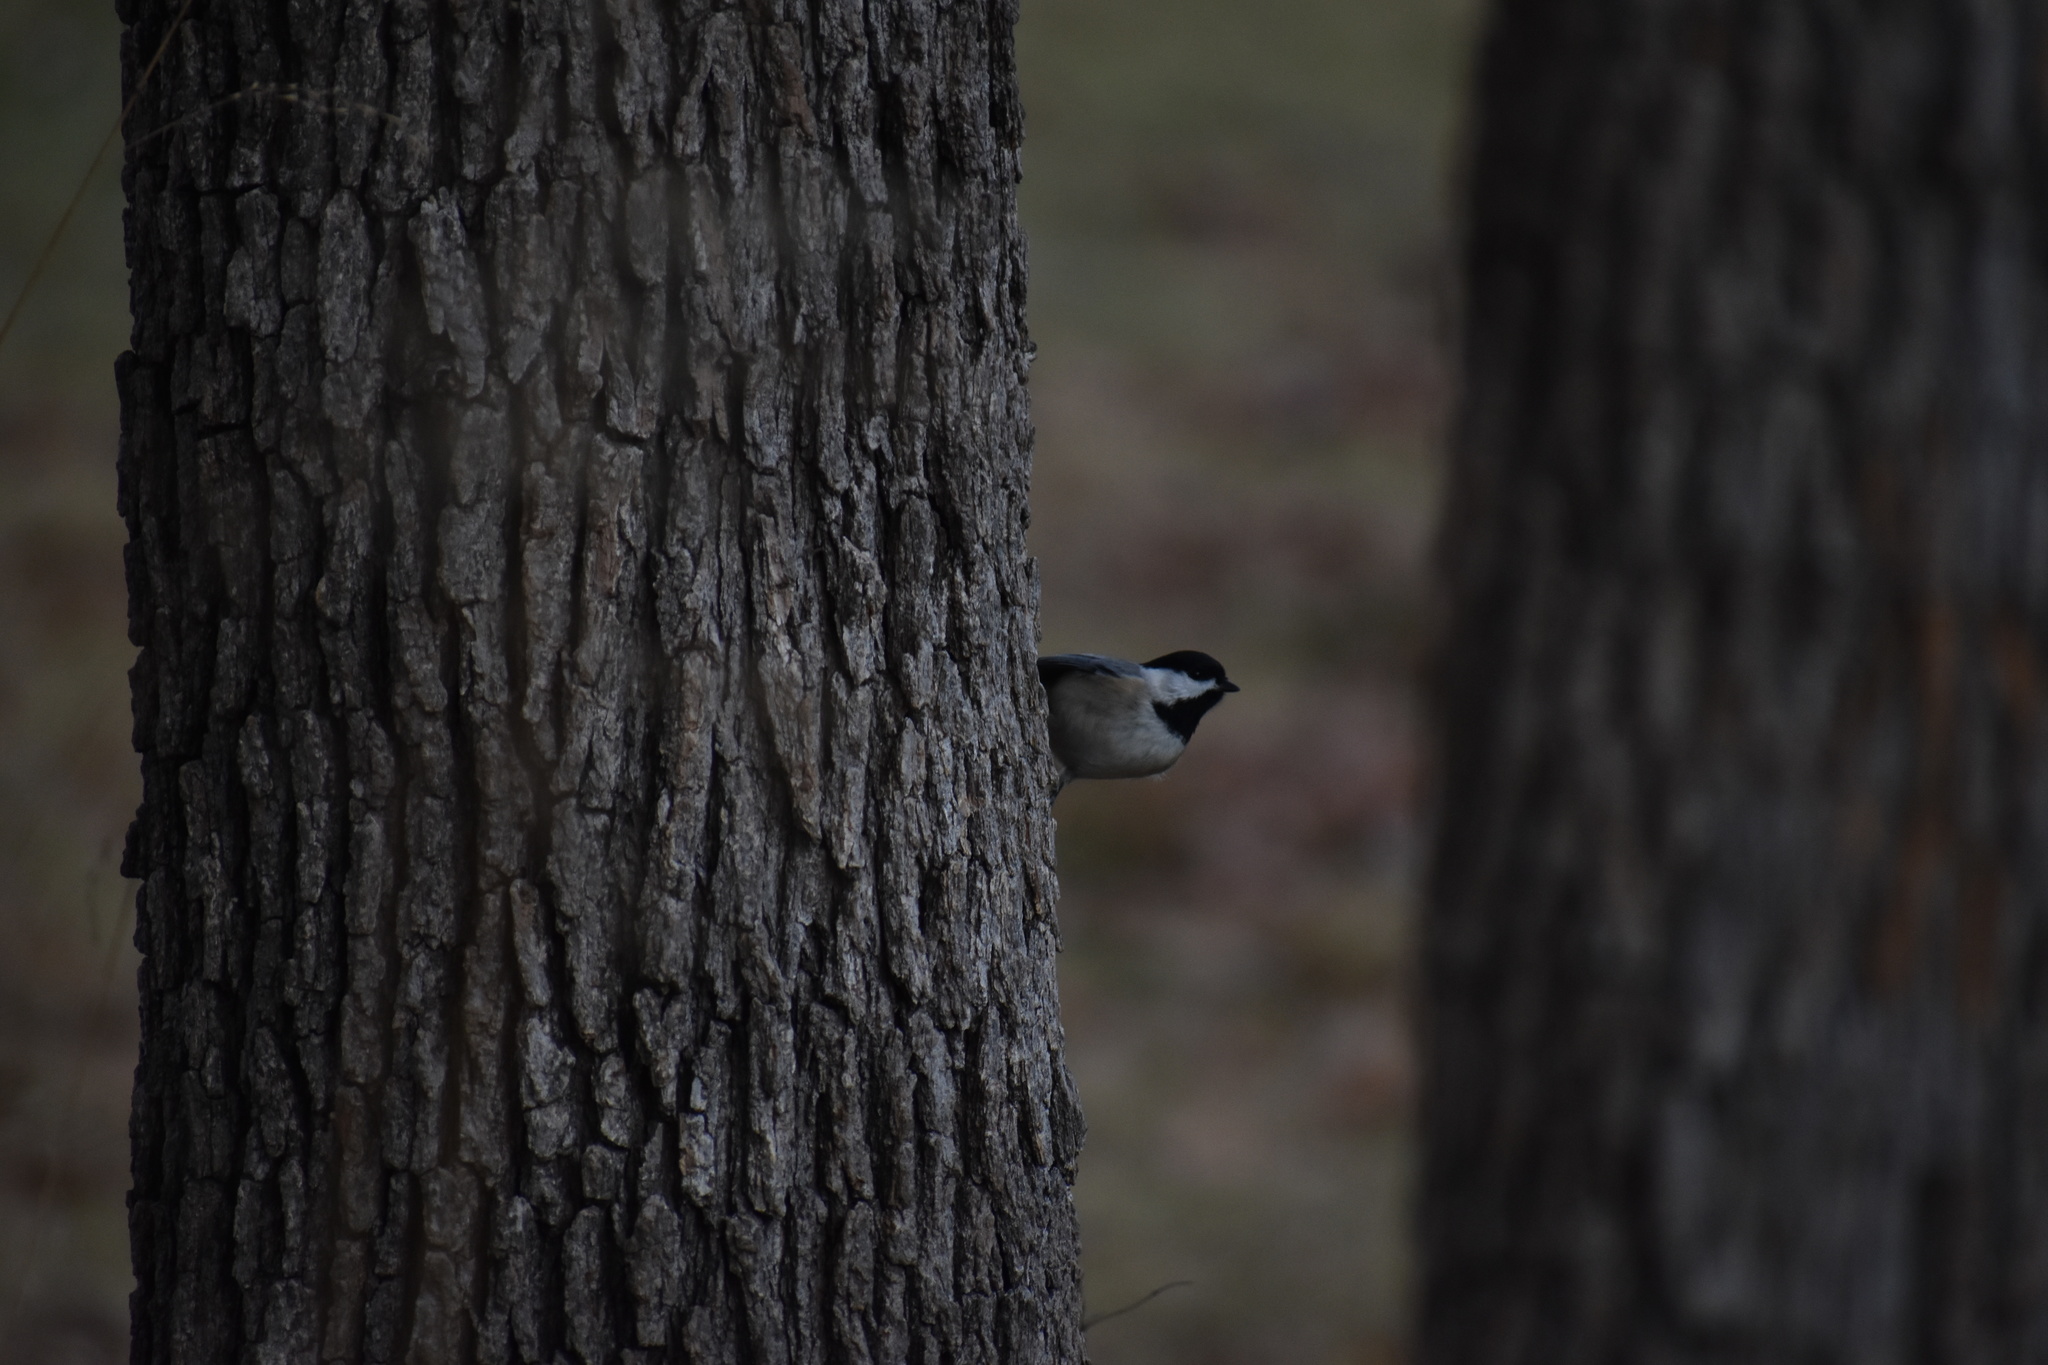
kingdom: Animalia
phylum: Chordata
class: Aves
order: Passeriformes
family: Paridae
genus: Poecile
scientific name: Poecile carolinensis
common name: Carolina chickadee
